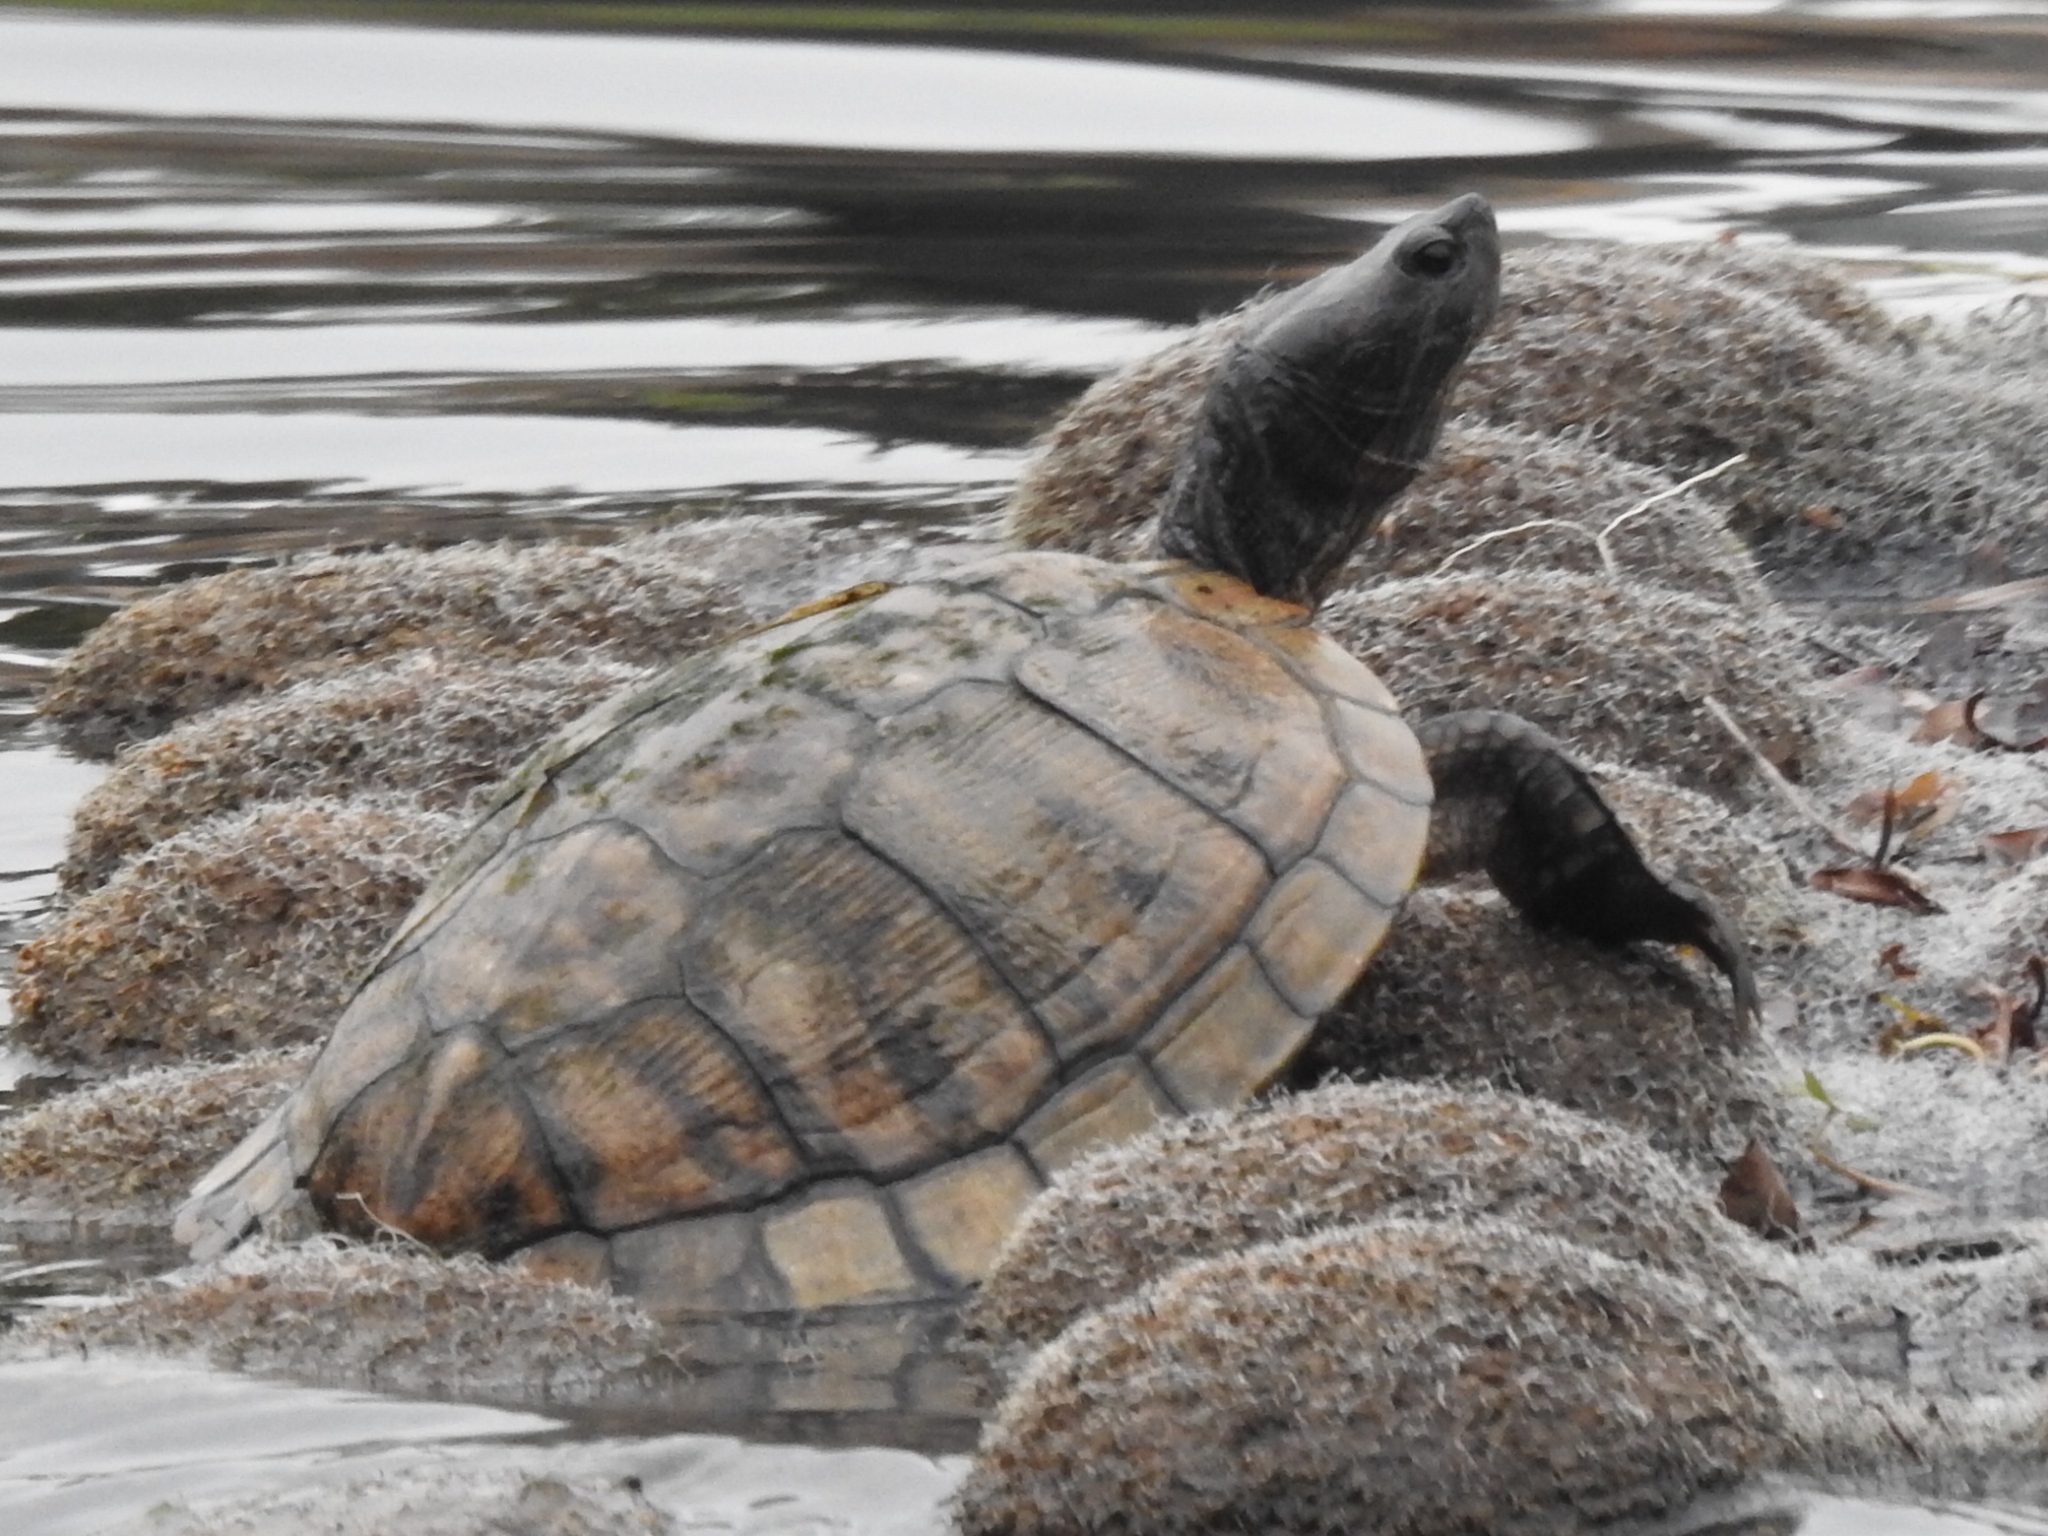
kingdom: Animalia
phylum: Chordata
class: Testudines
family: Emydidae
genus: Trachemys
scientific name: Trachemys scripta
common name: Slider
